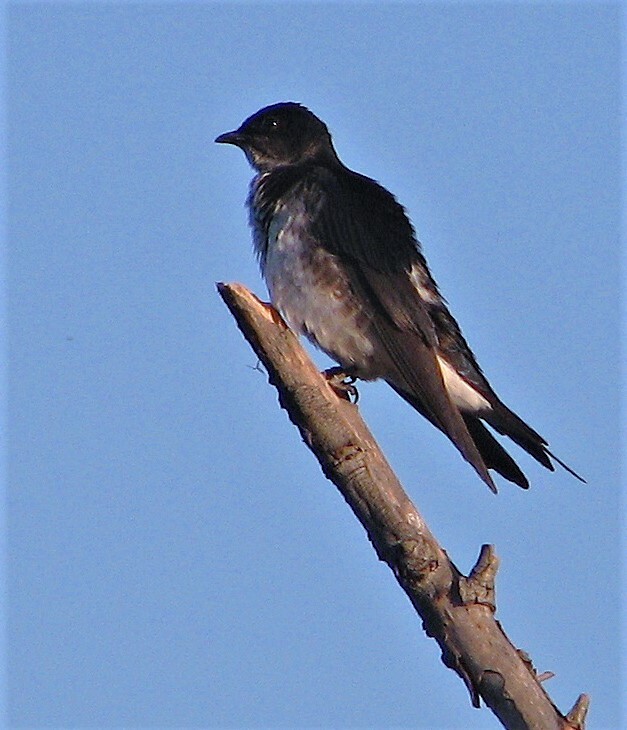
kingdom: Animalia
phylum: Chordata
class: Aves
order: Passeriformes
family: Hirundinidae
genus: Progne
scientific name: Progne chalybea
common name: Grey-breasted martin
